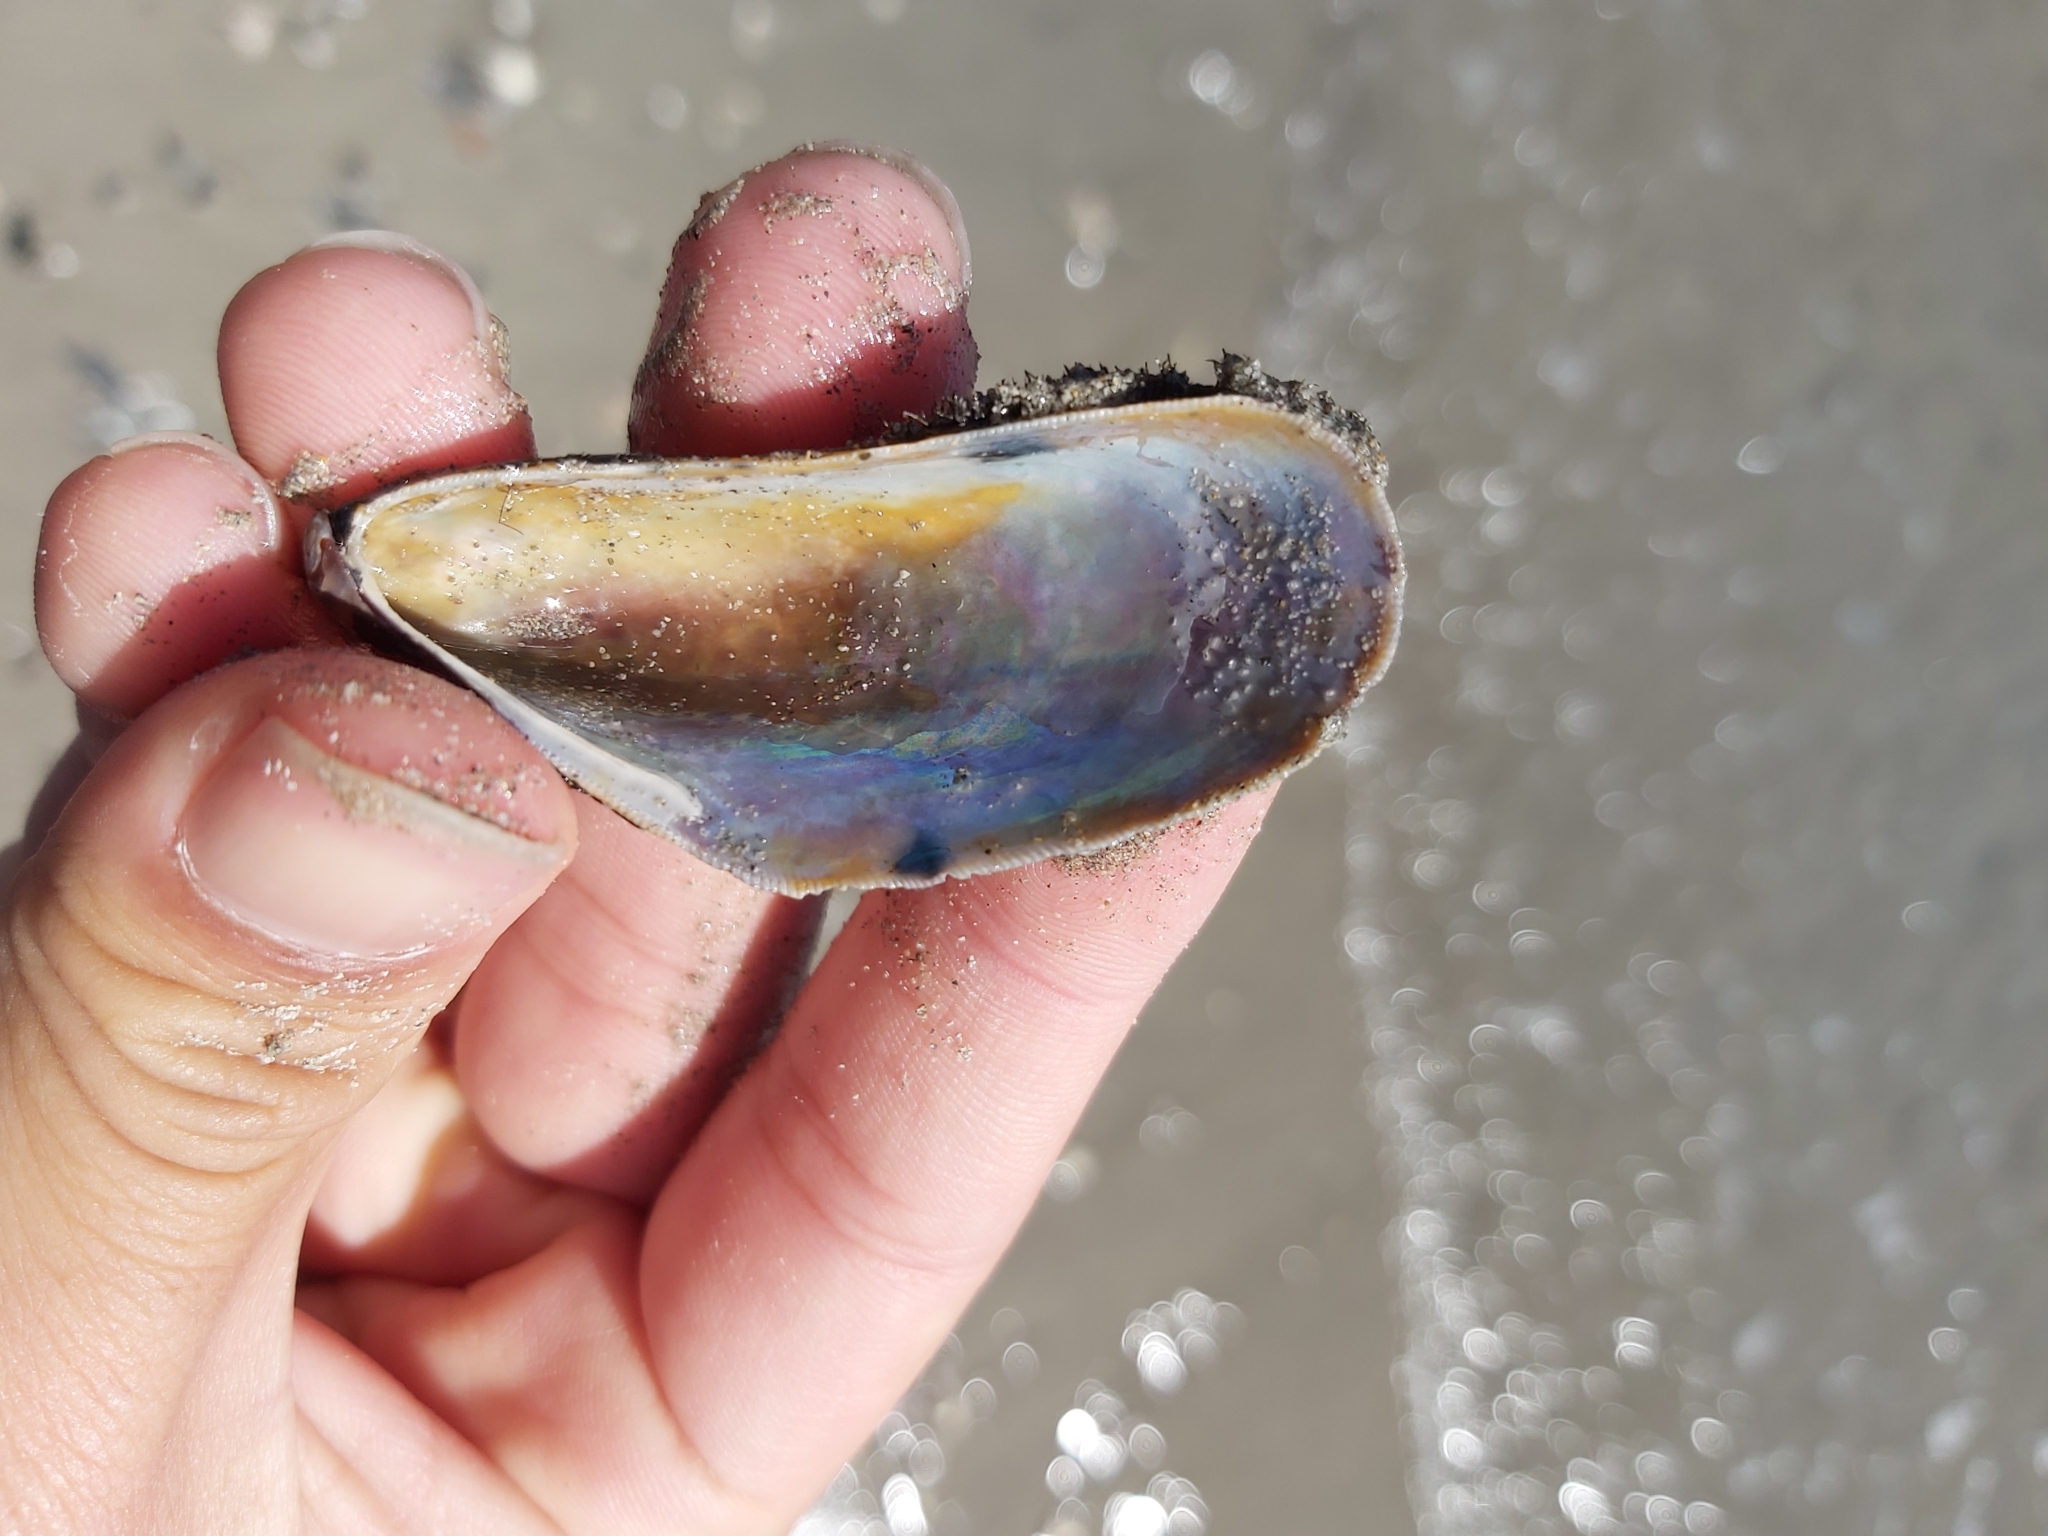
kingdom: Animalia
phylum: Mollusca
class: Bivalvia
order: Mytilida
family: Mytilidae
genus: Trichomya
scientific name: Trichomya hirsuta
